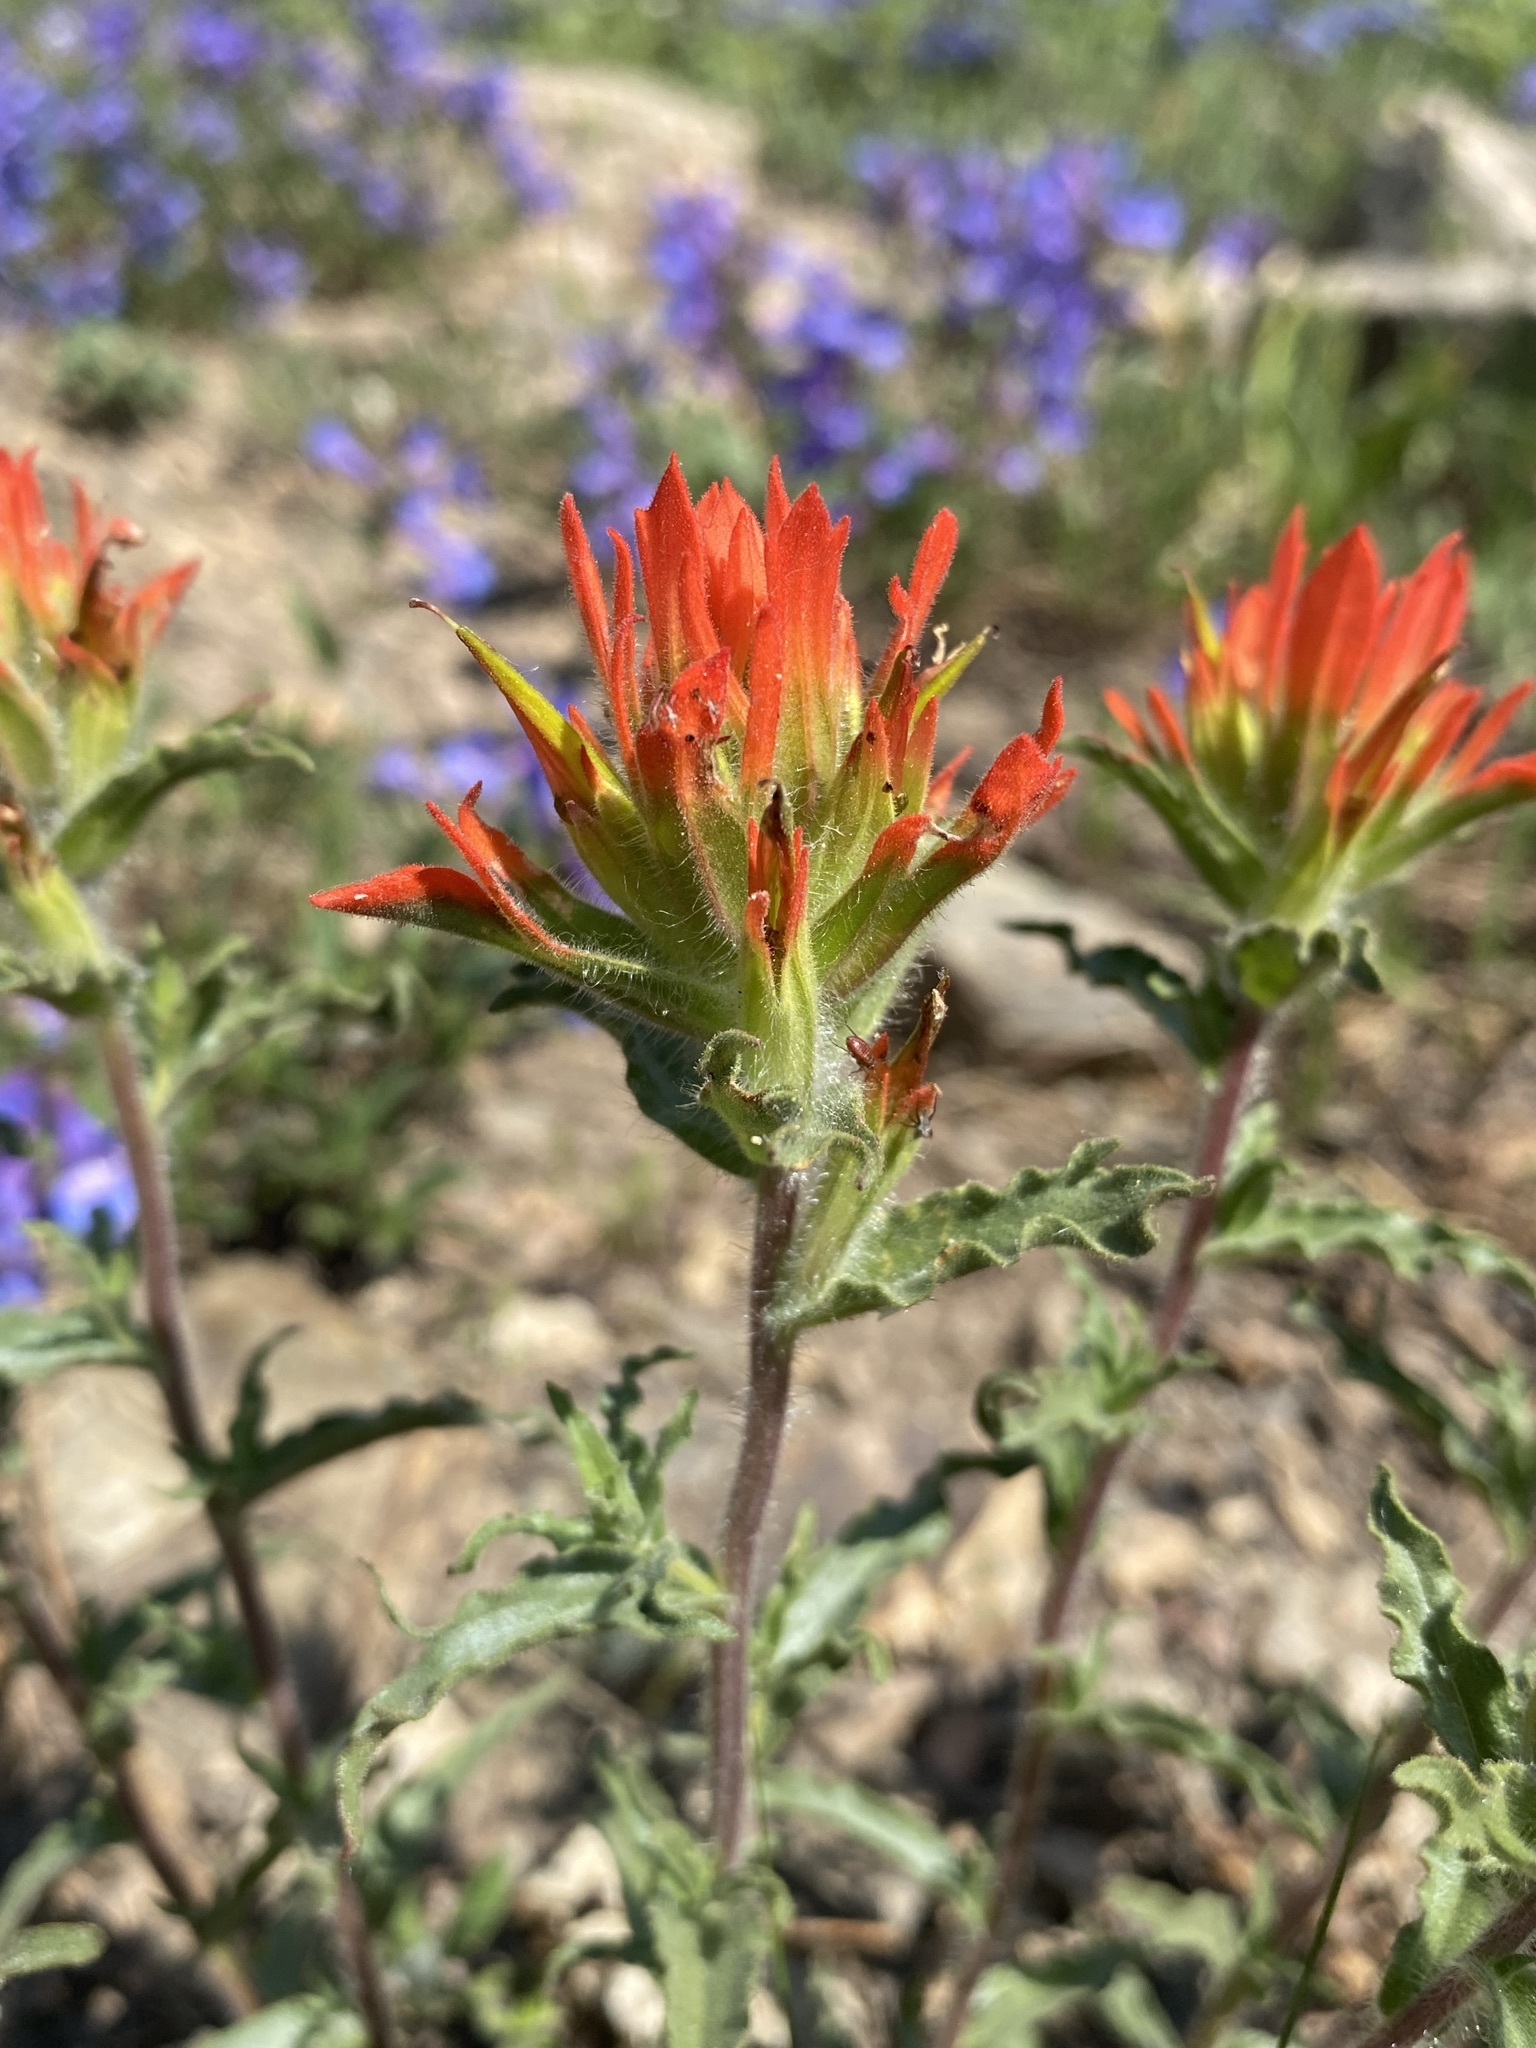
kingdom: Plantae
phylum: Tracheophyta
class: Magnoliopsida
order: Lamiales
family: Orobanchaceae
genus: Castilleja
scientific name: Castilleja applegatei
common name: Wavy-leaf paintbrush
